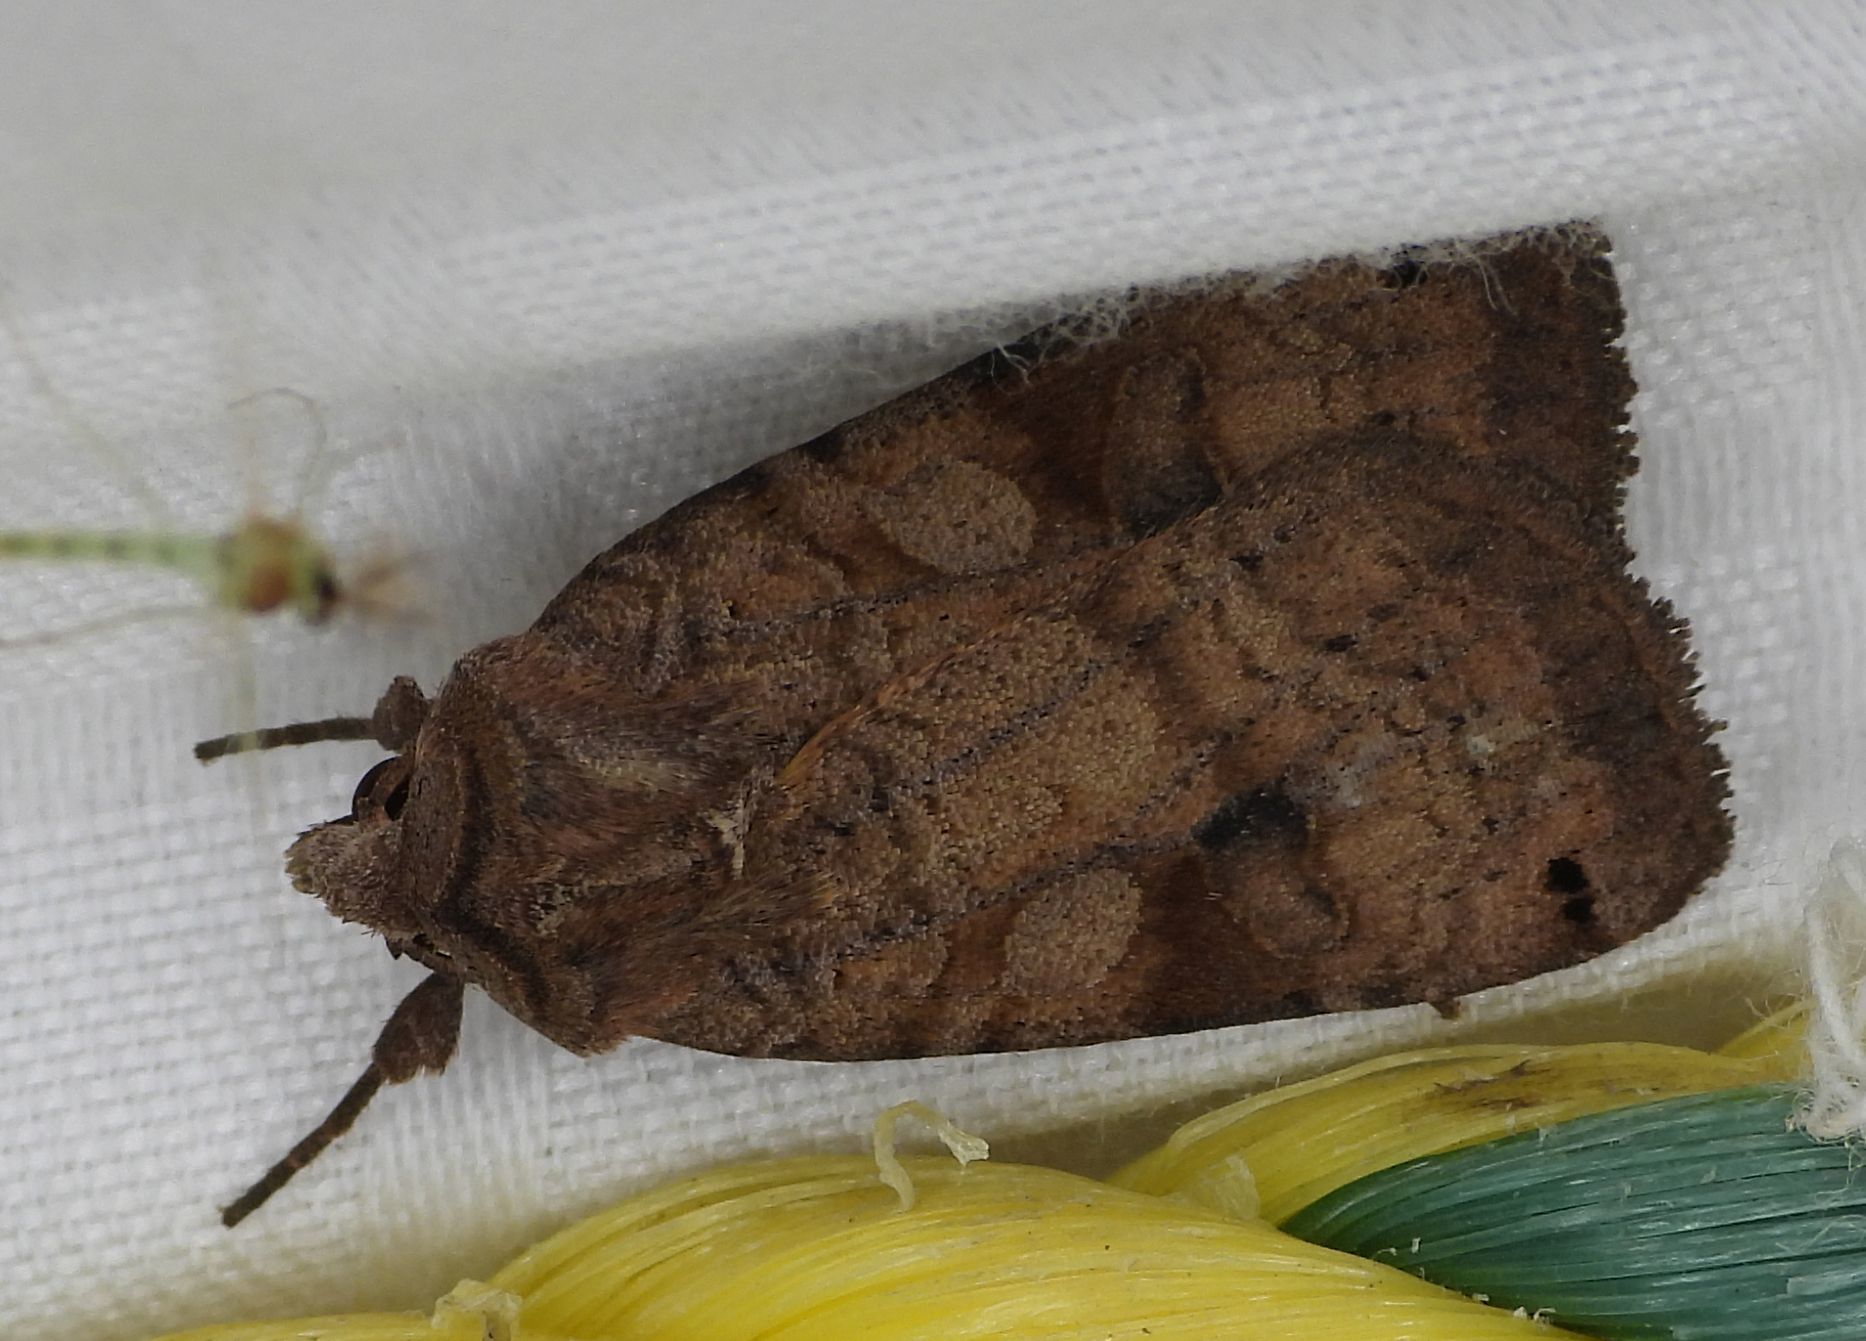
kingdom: Animalia
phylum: Arthropoda
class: Insecta
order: Lepidoptera
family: Noctuidae
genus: Xestia
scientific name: Xestia smithii
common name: Smith's dart
